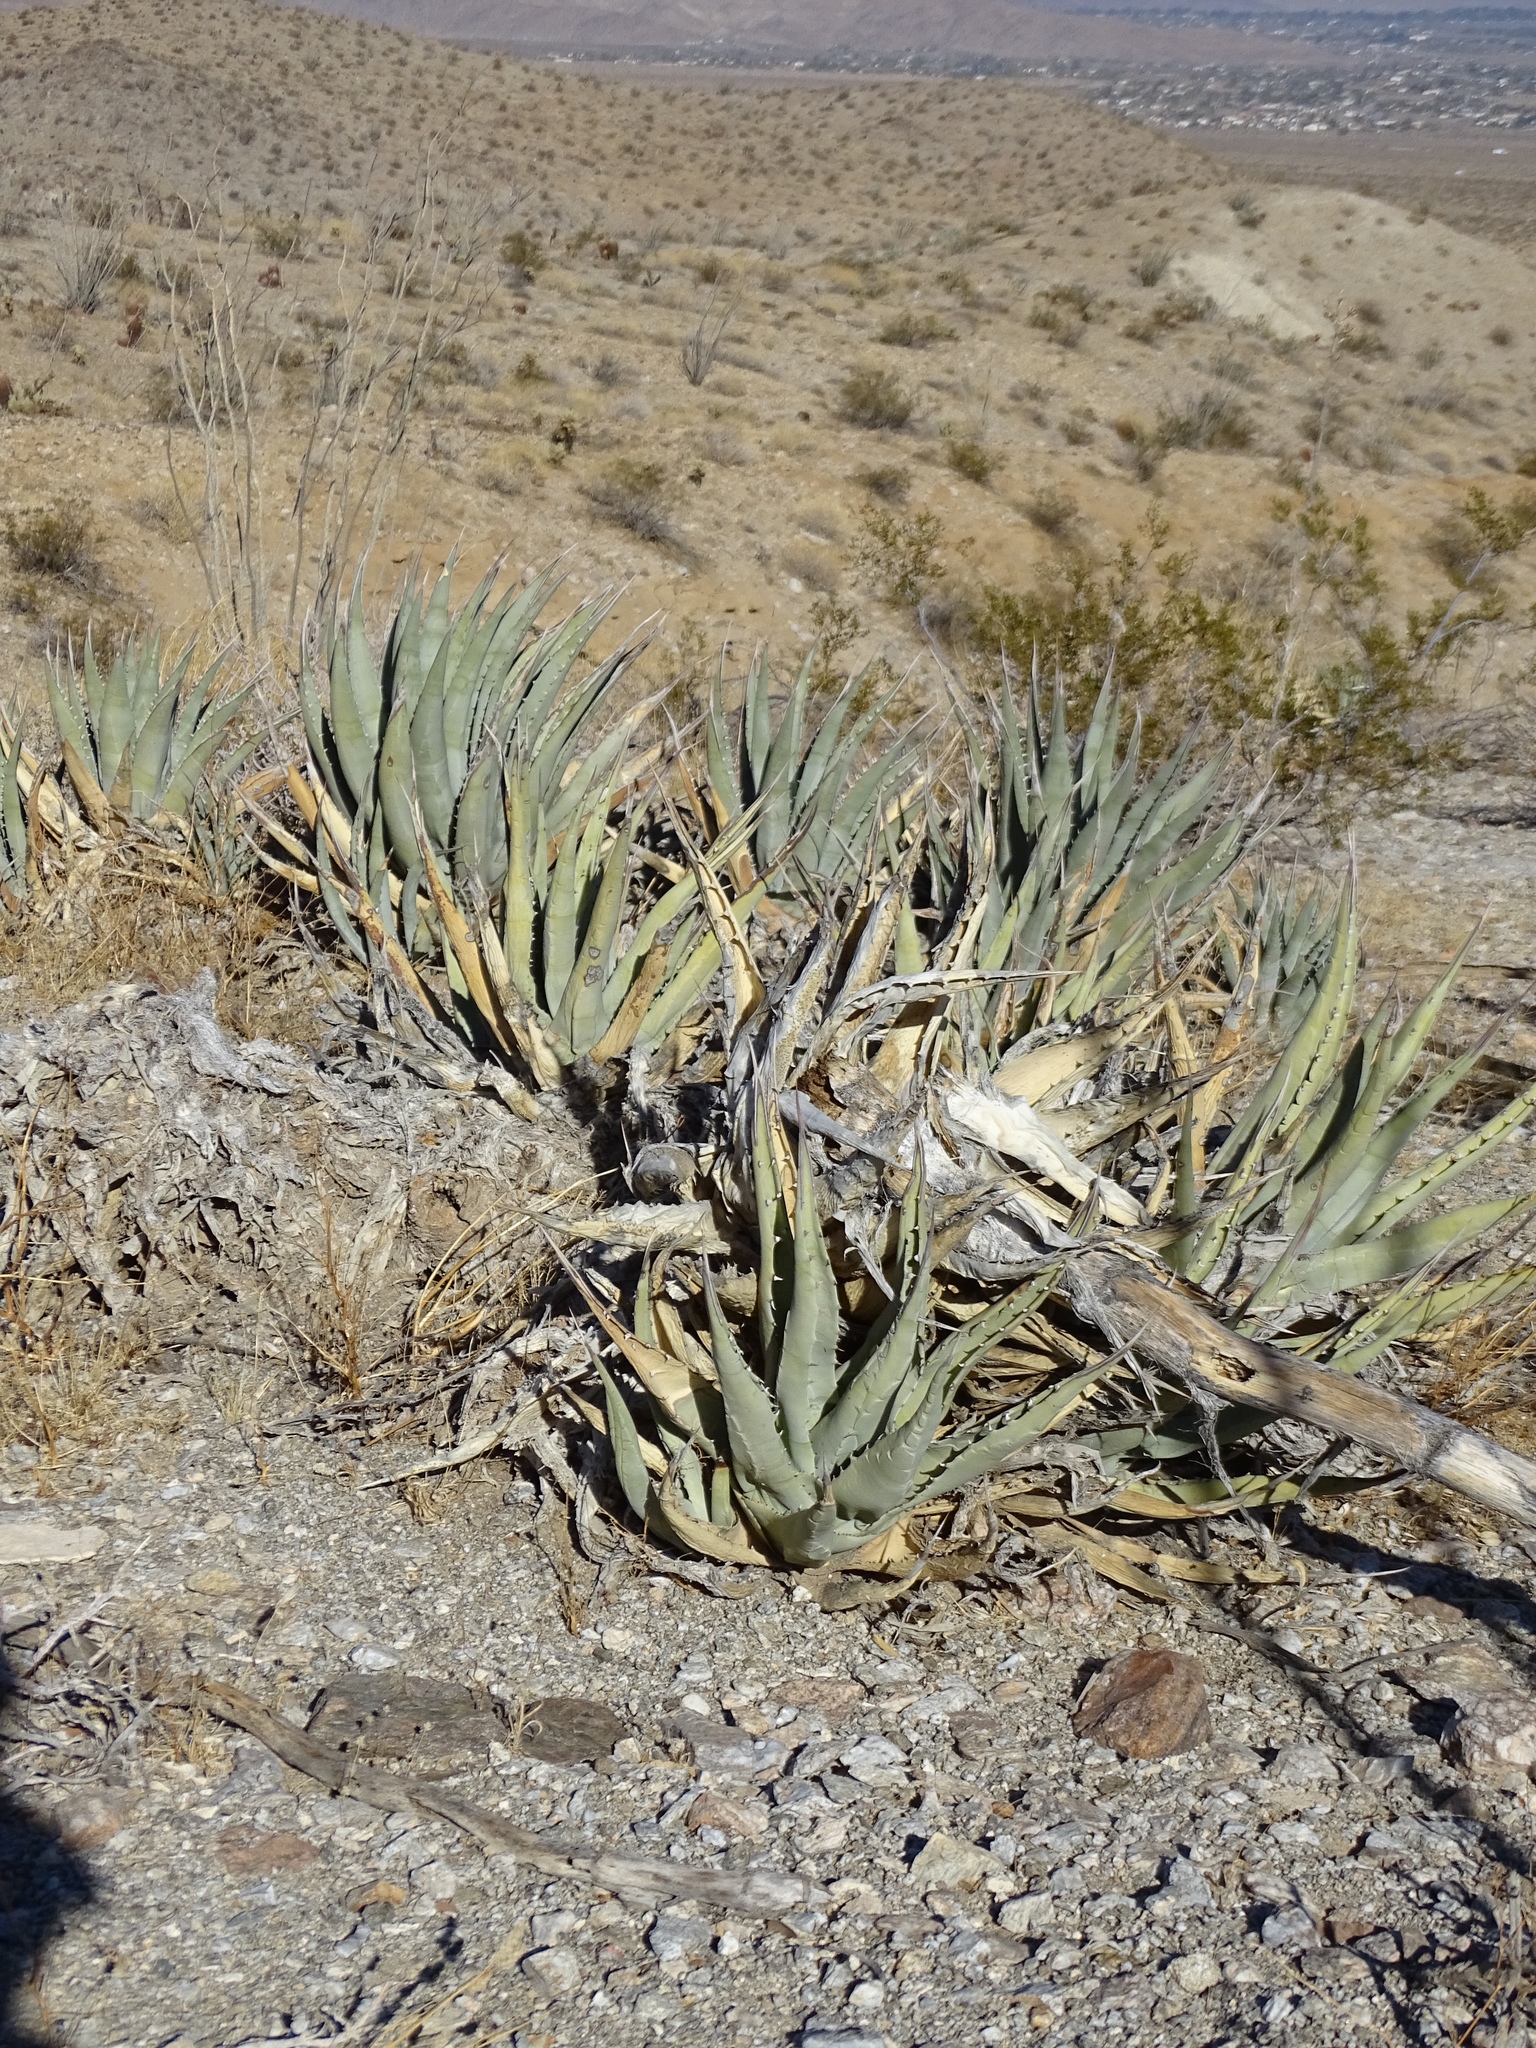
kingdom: Plantae
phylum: Tracheophyta
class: Liliopsida
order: Asparagales
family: Asparagaceae
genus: Agave
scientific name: Agave deserti
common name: Desert agave
